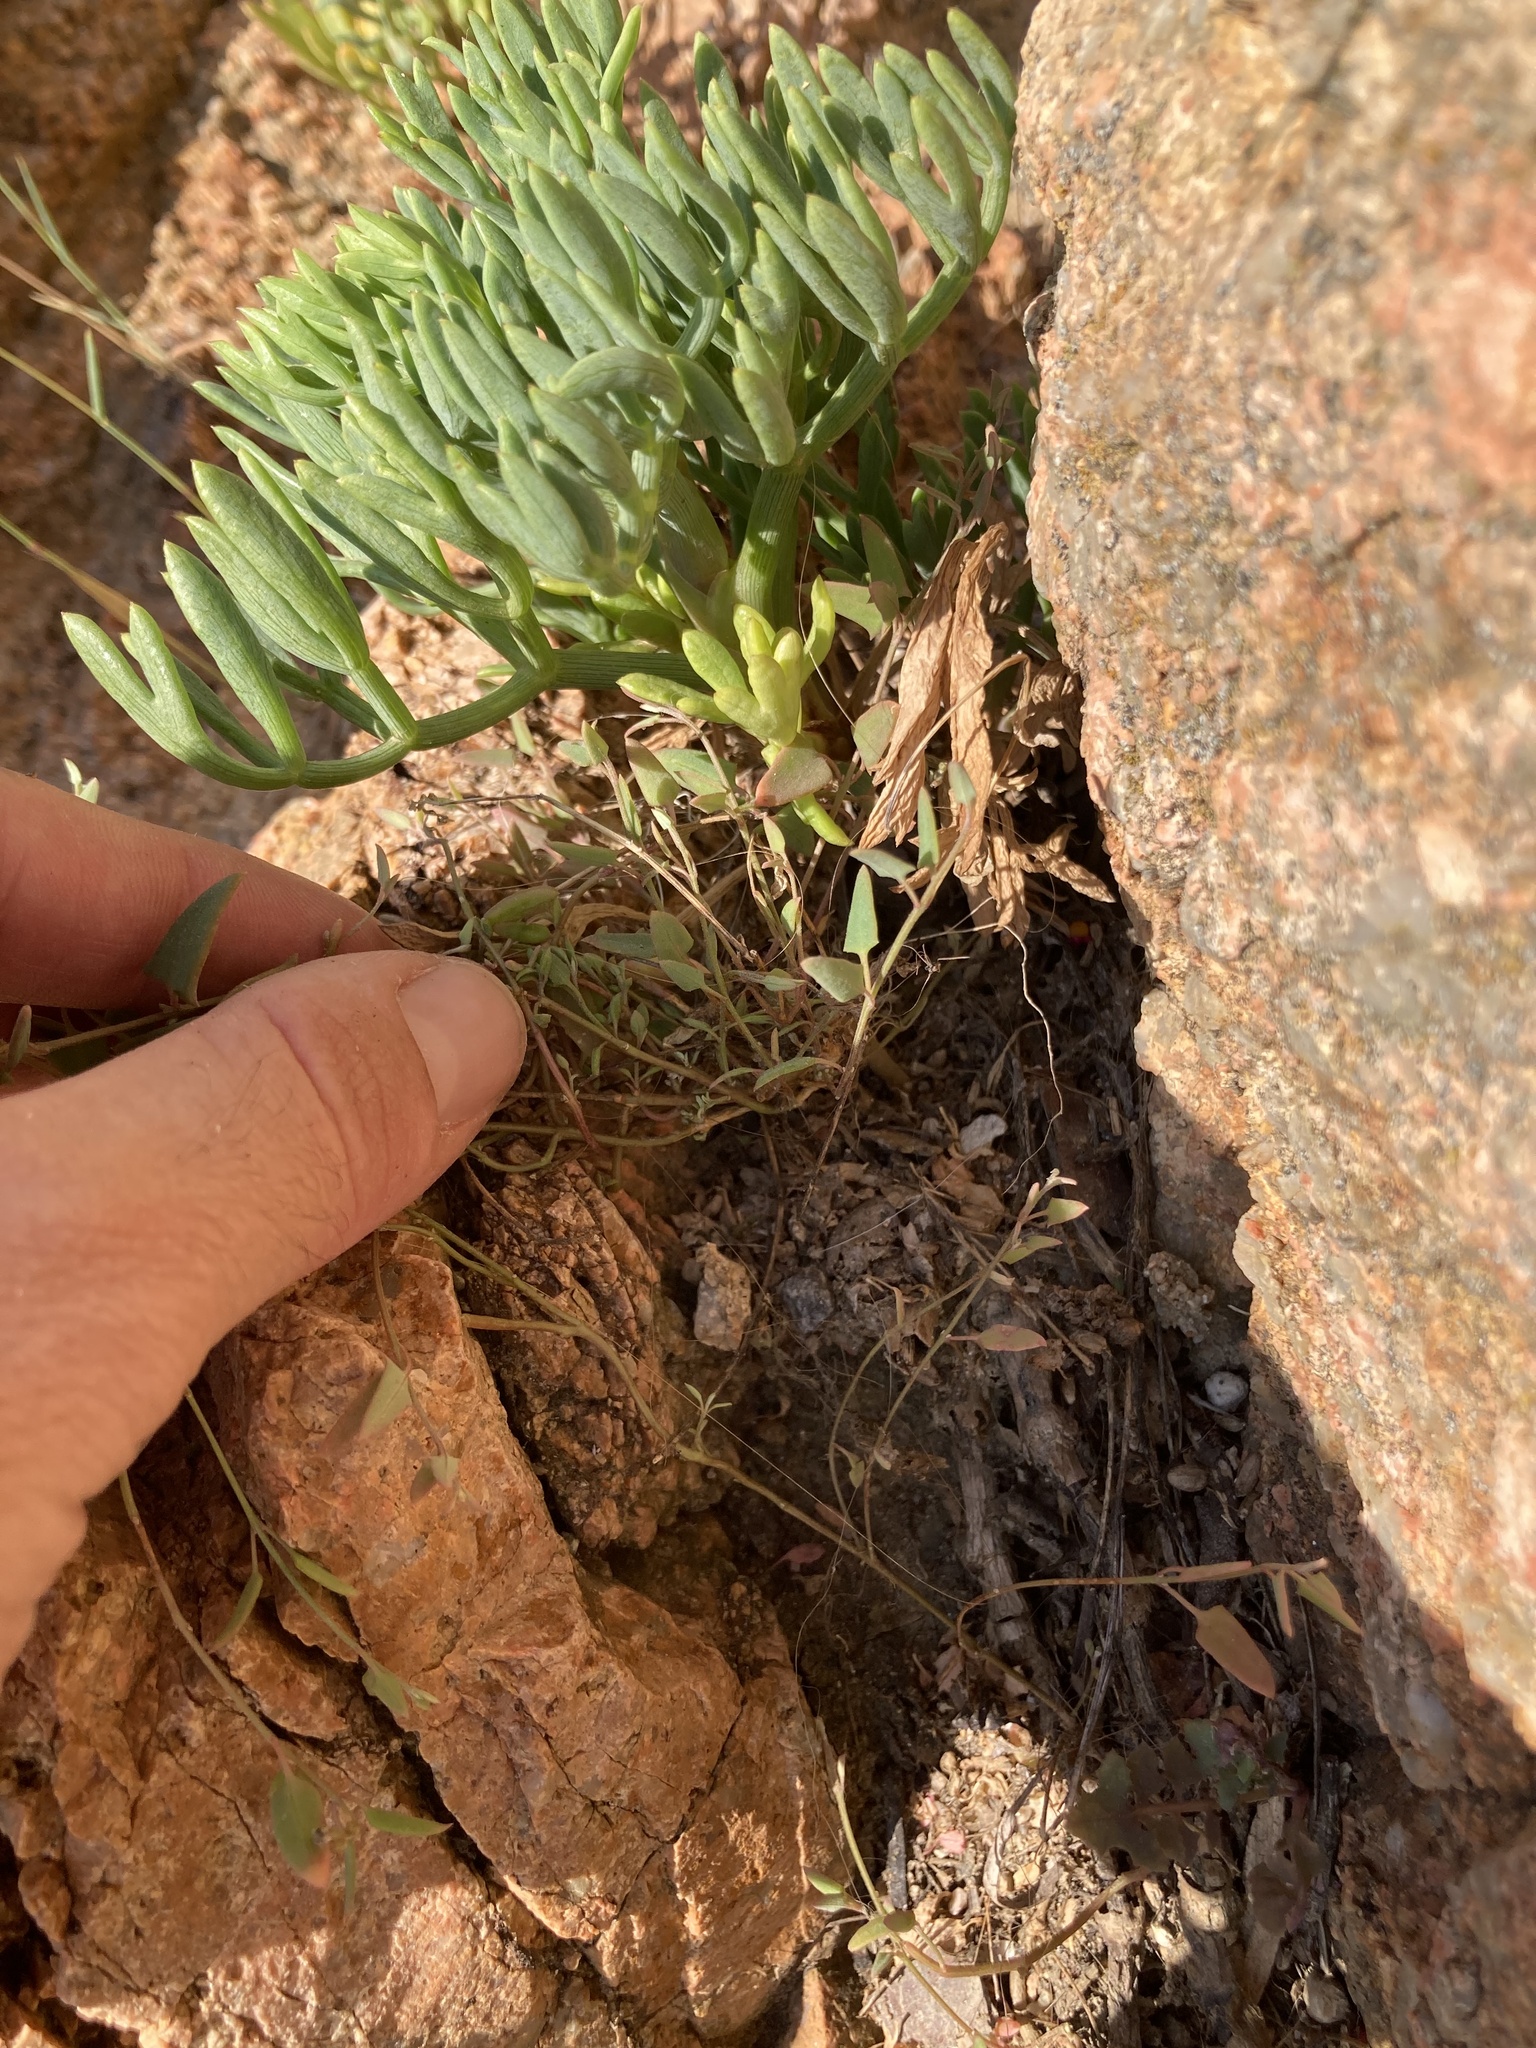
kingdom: Plantae
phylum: Tracheophyta
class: Magnoliopsida
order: Caryophyllales
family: Amaranthaceae
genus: Chenopodium
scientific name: Chenopodium nutans
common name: Climbing-saltbush
